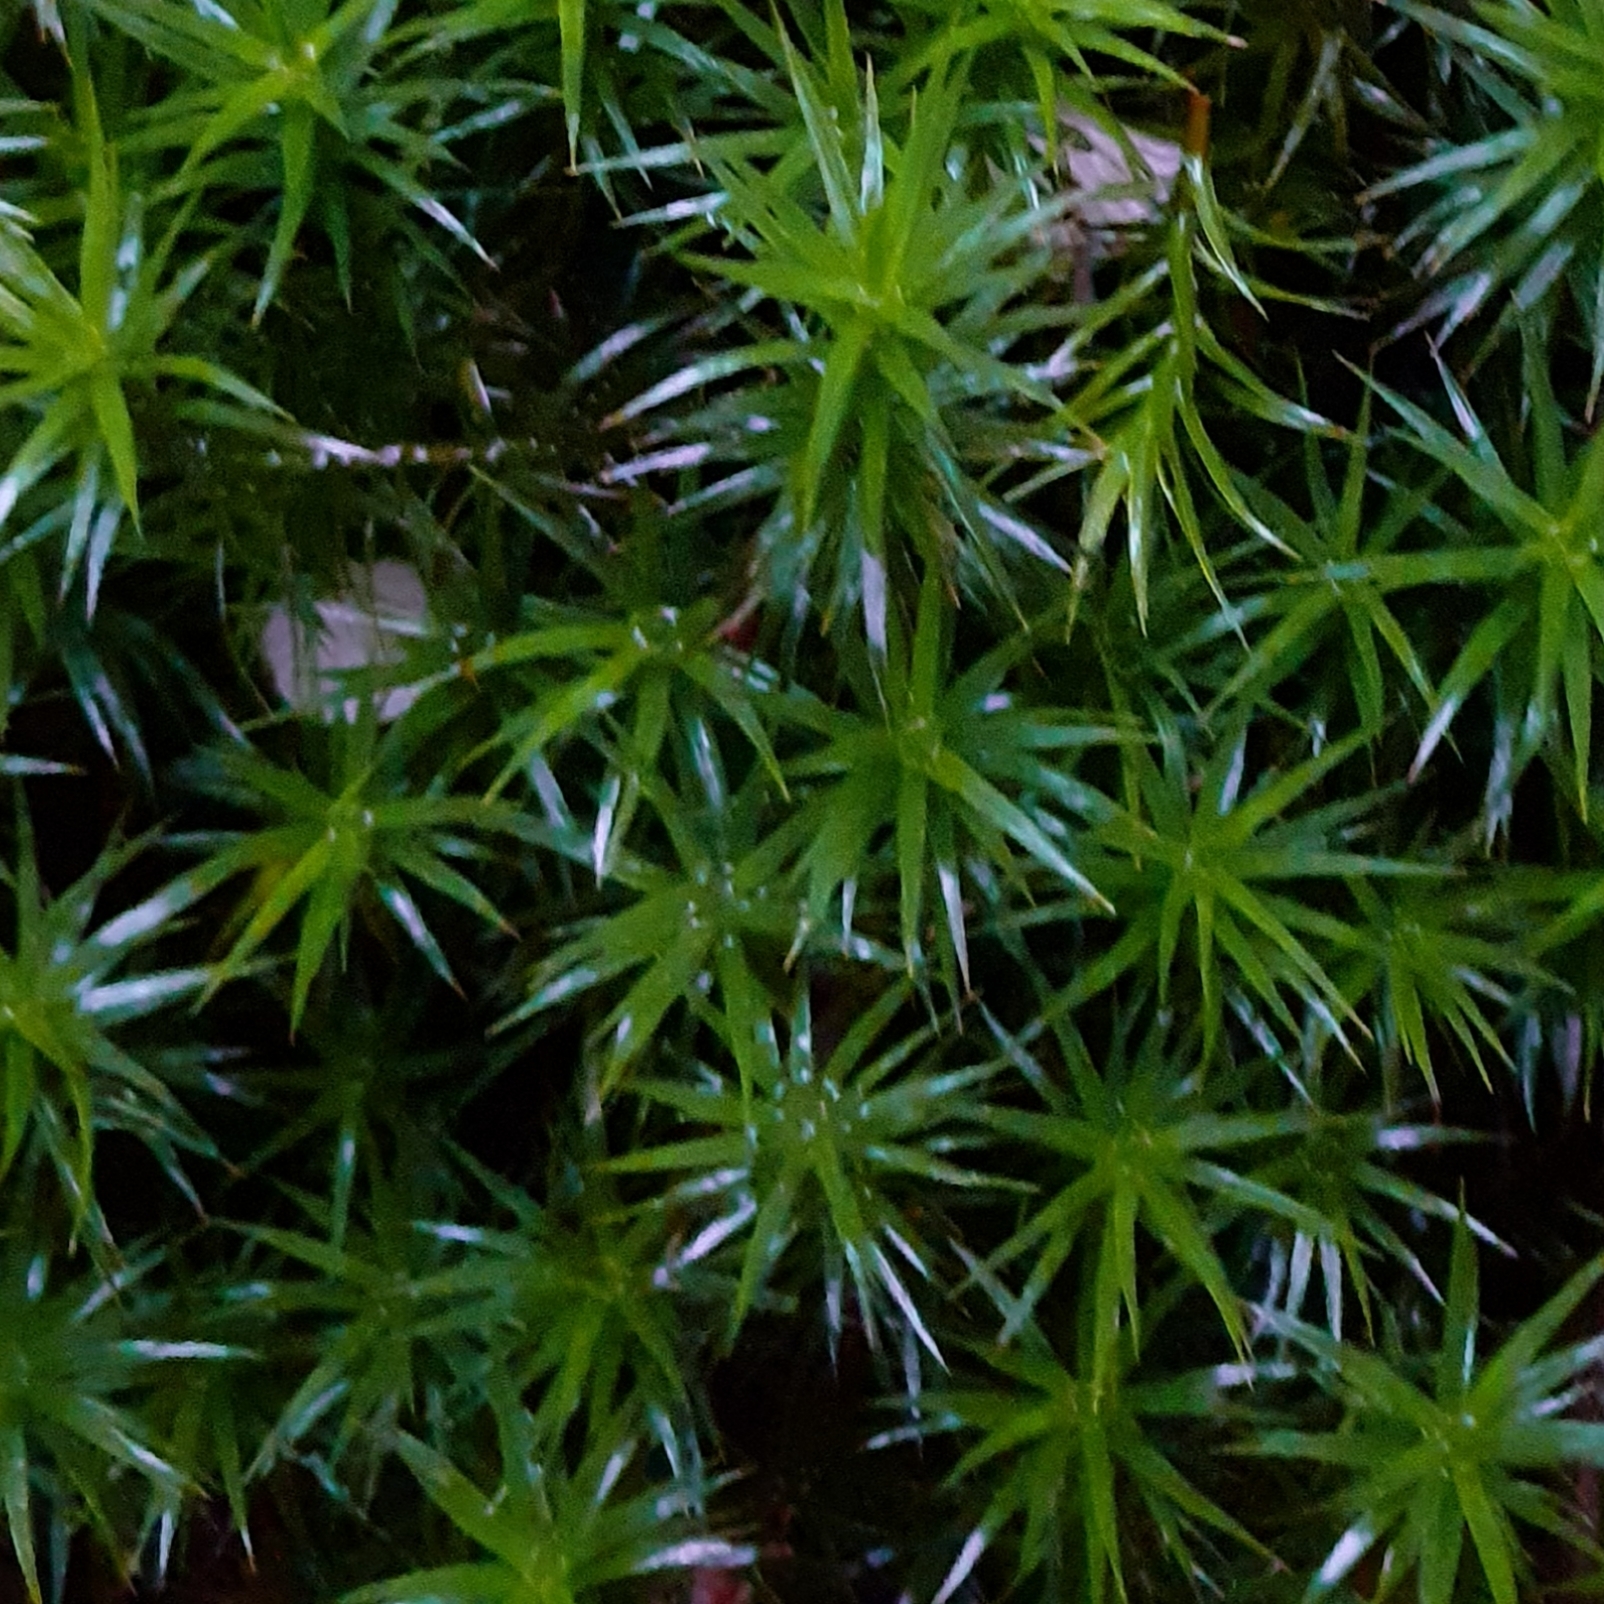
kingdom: Plantae
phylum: Bryophyta
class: Polytrichopsida
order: Polytrichales
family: Polytrichaceae
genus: Polytrichum
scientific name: Polytrichum formosum
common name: Bank haircap moss
